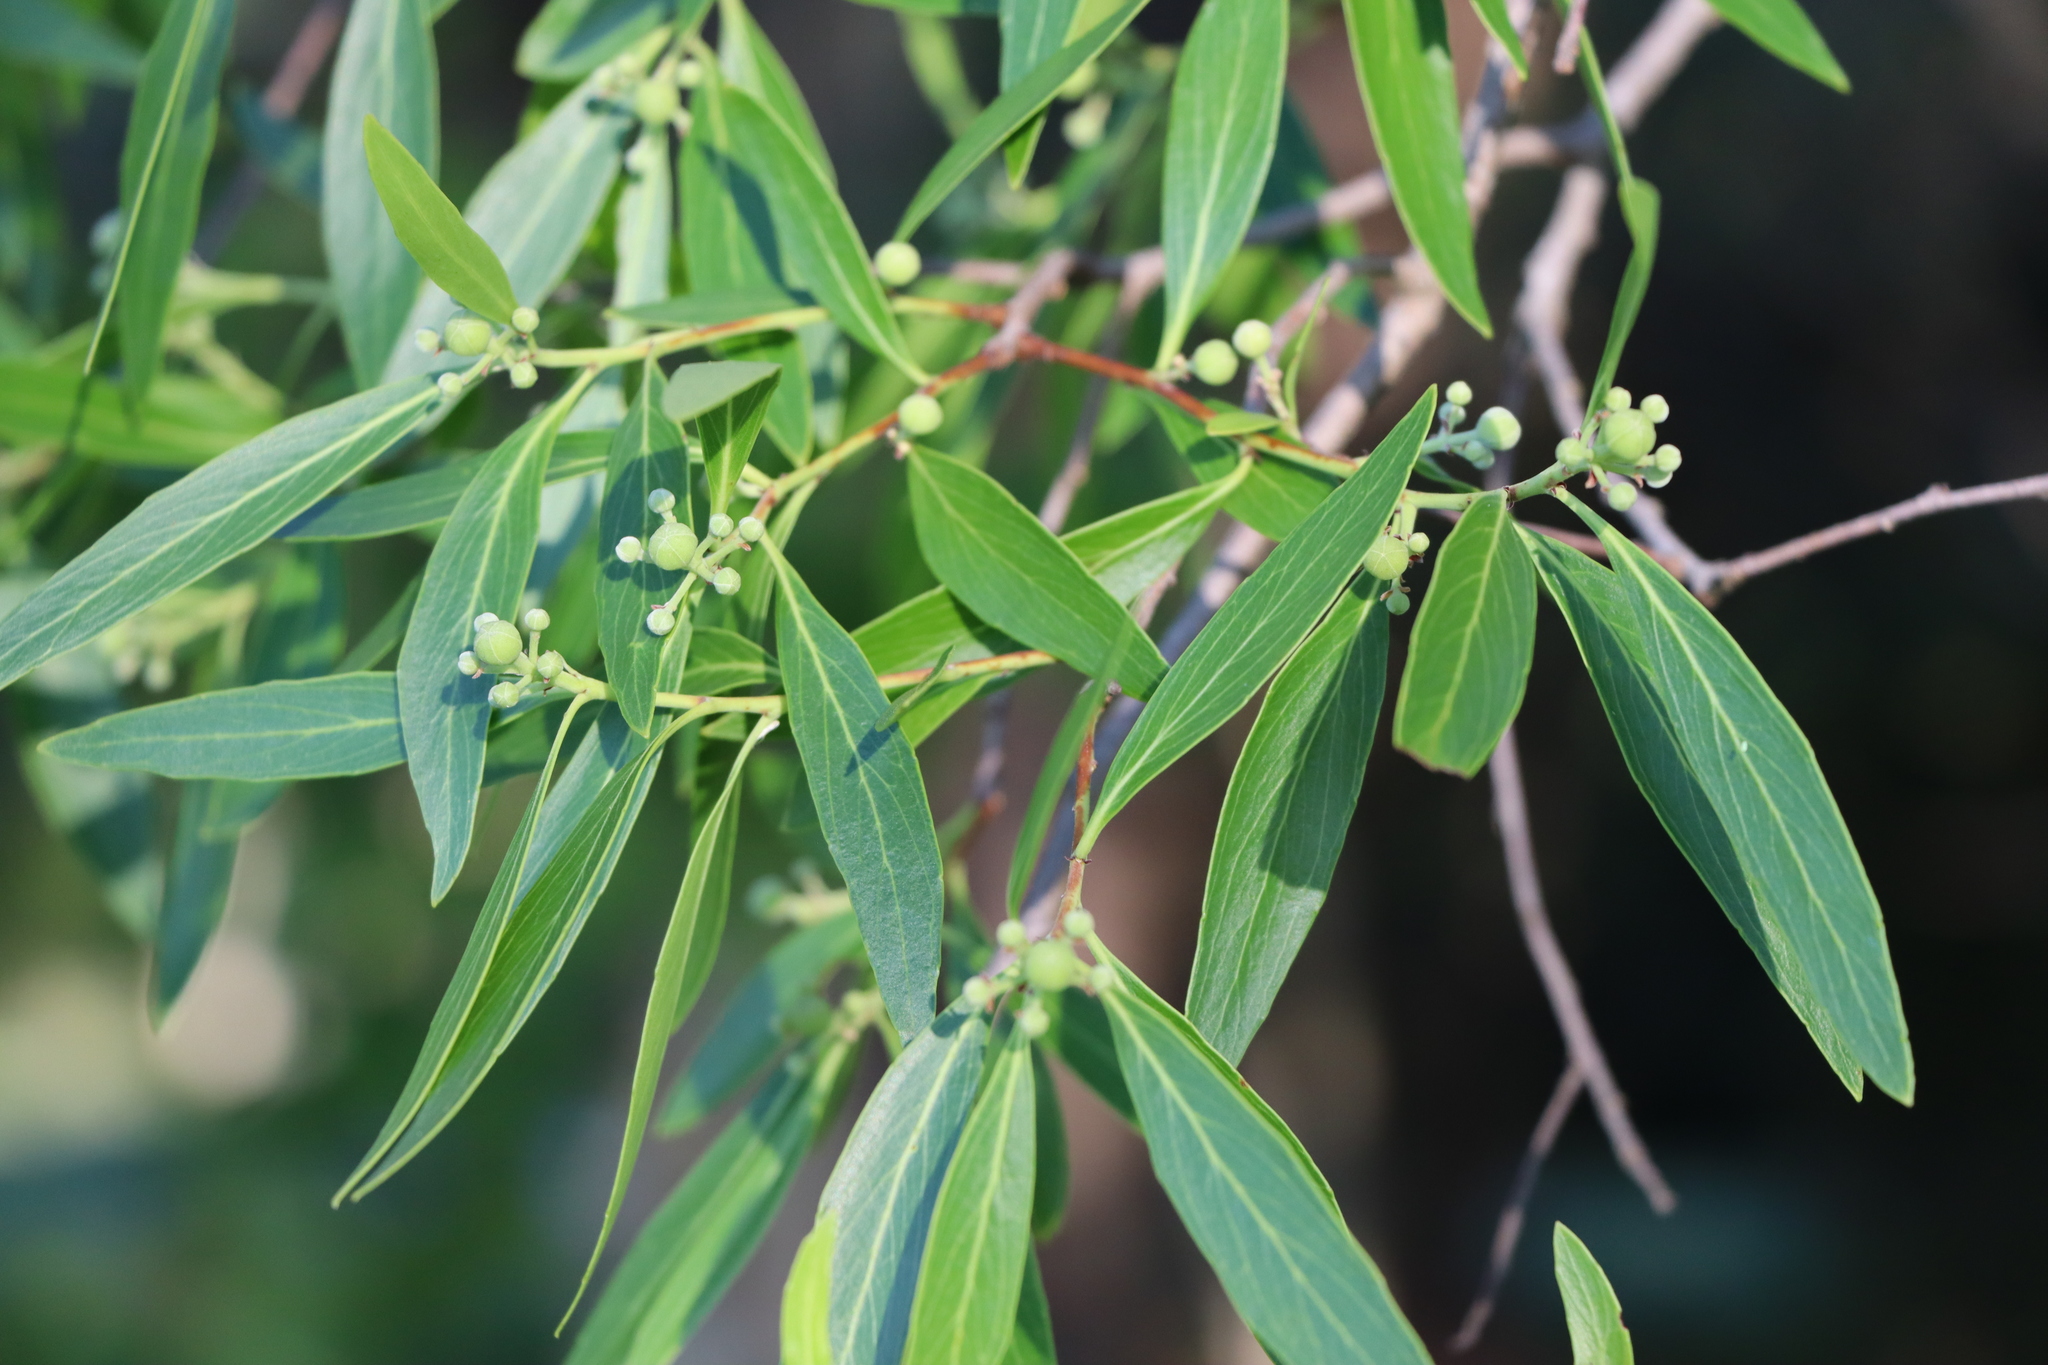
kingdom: Plantae
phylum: Tracheophyta
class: Magnoliopsida
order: Fabales
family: Quillajaceae
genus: Quillaja
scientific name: Quillaja brasiliensis
